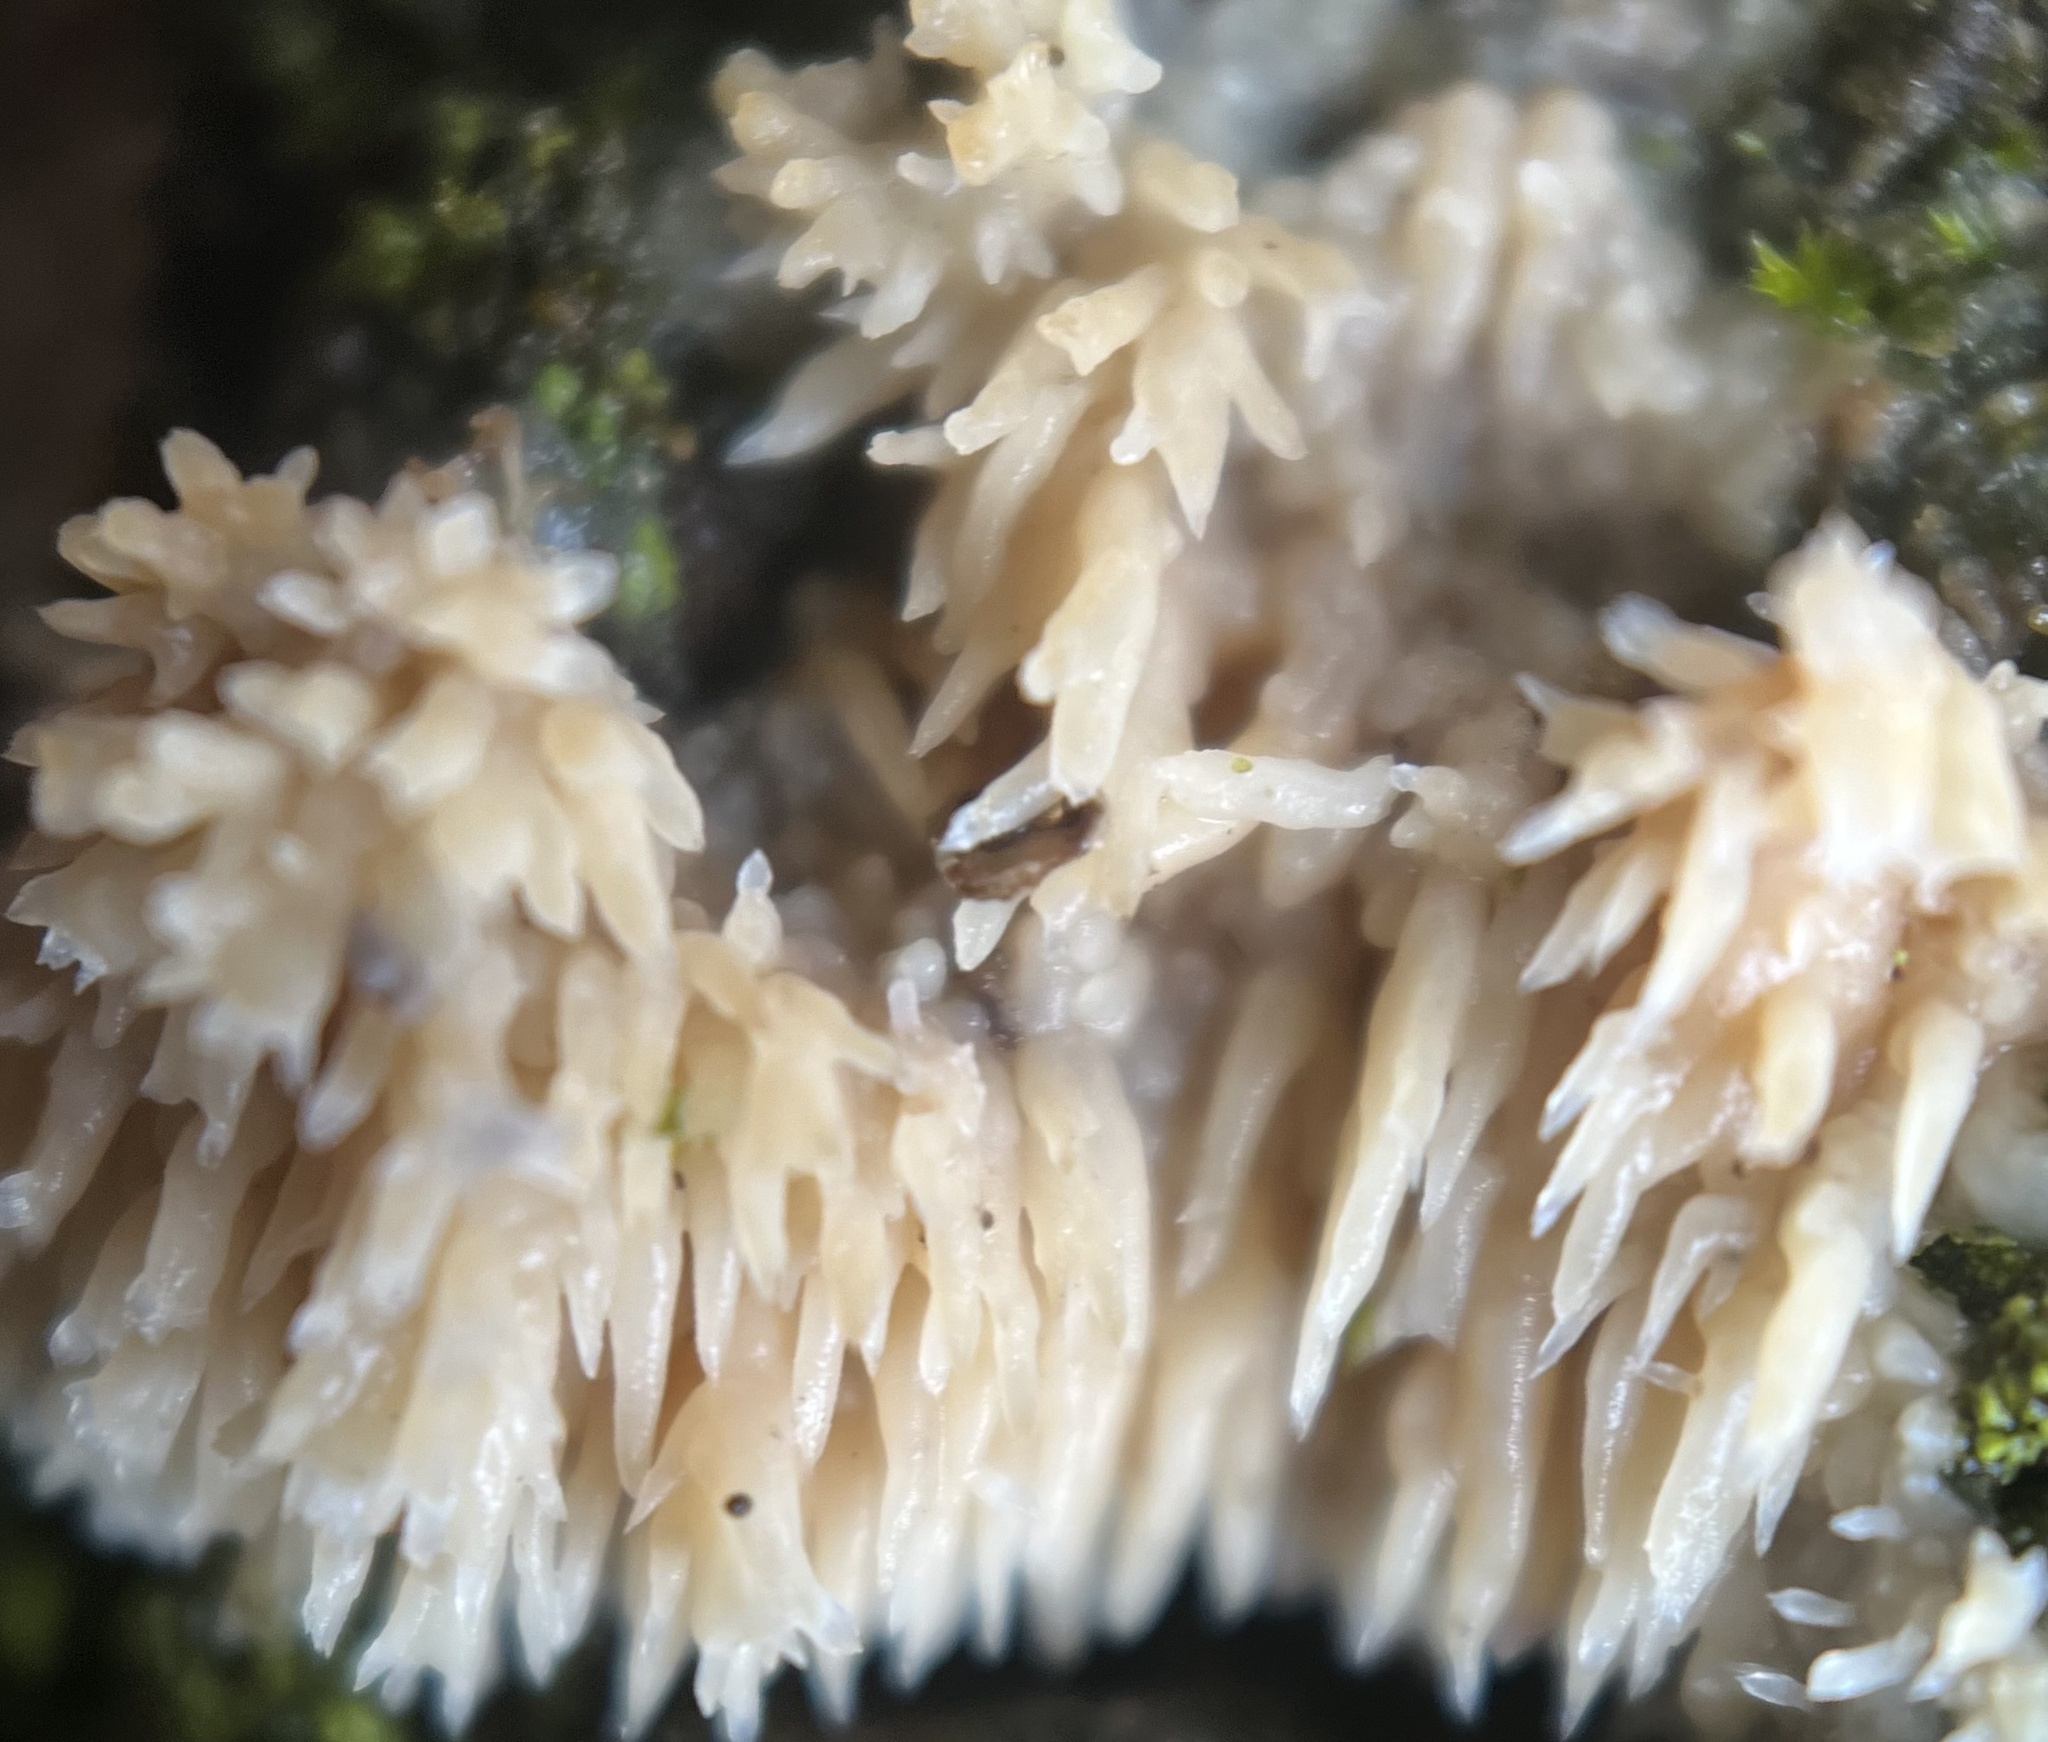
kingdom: Fungi
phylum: Basidiomycota
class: Agaricomycetes
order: Agaricales
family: Radulomycetaceae
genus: Radulomyces
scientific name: Radulomyces copelandii
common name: Asian beauty
